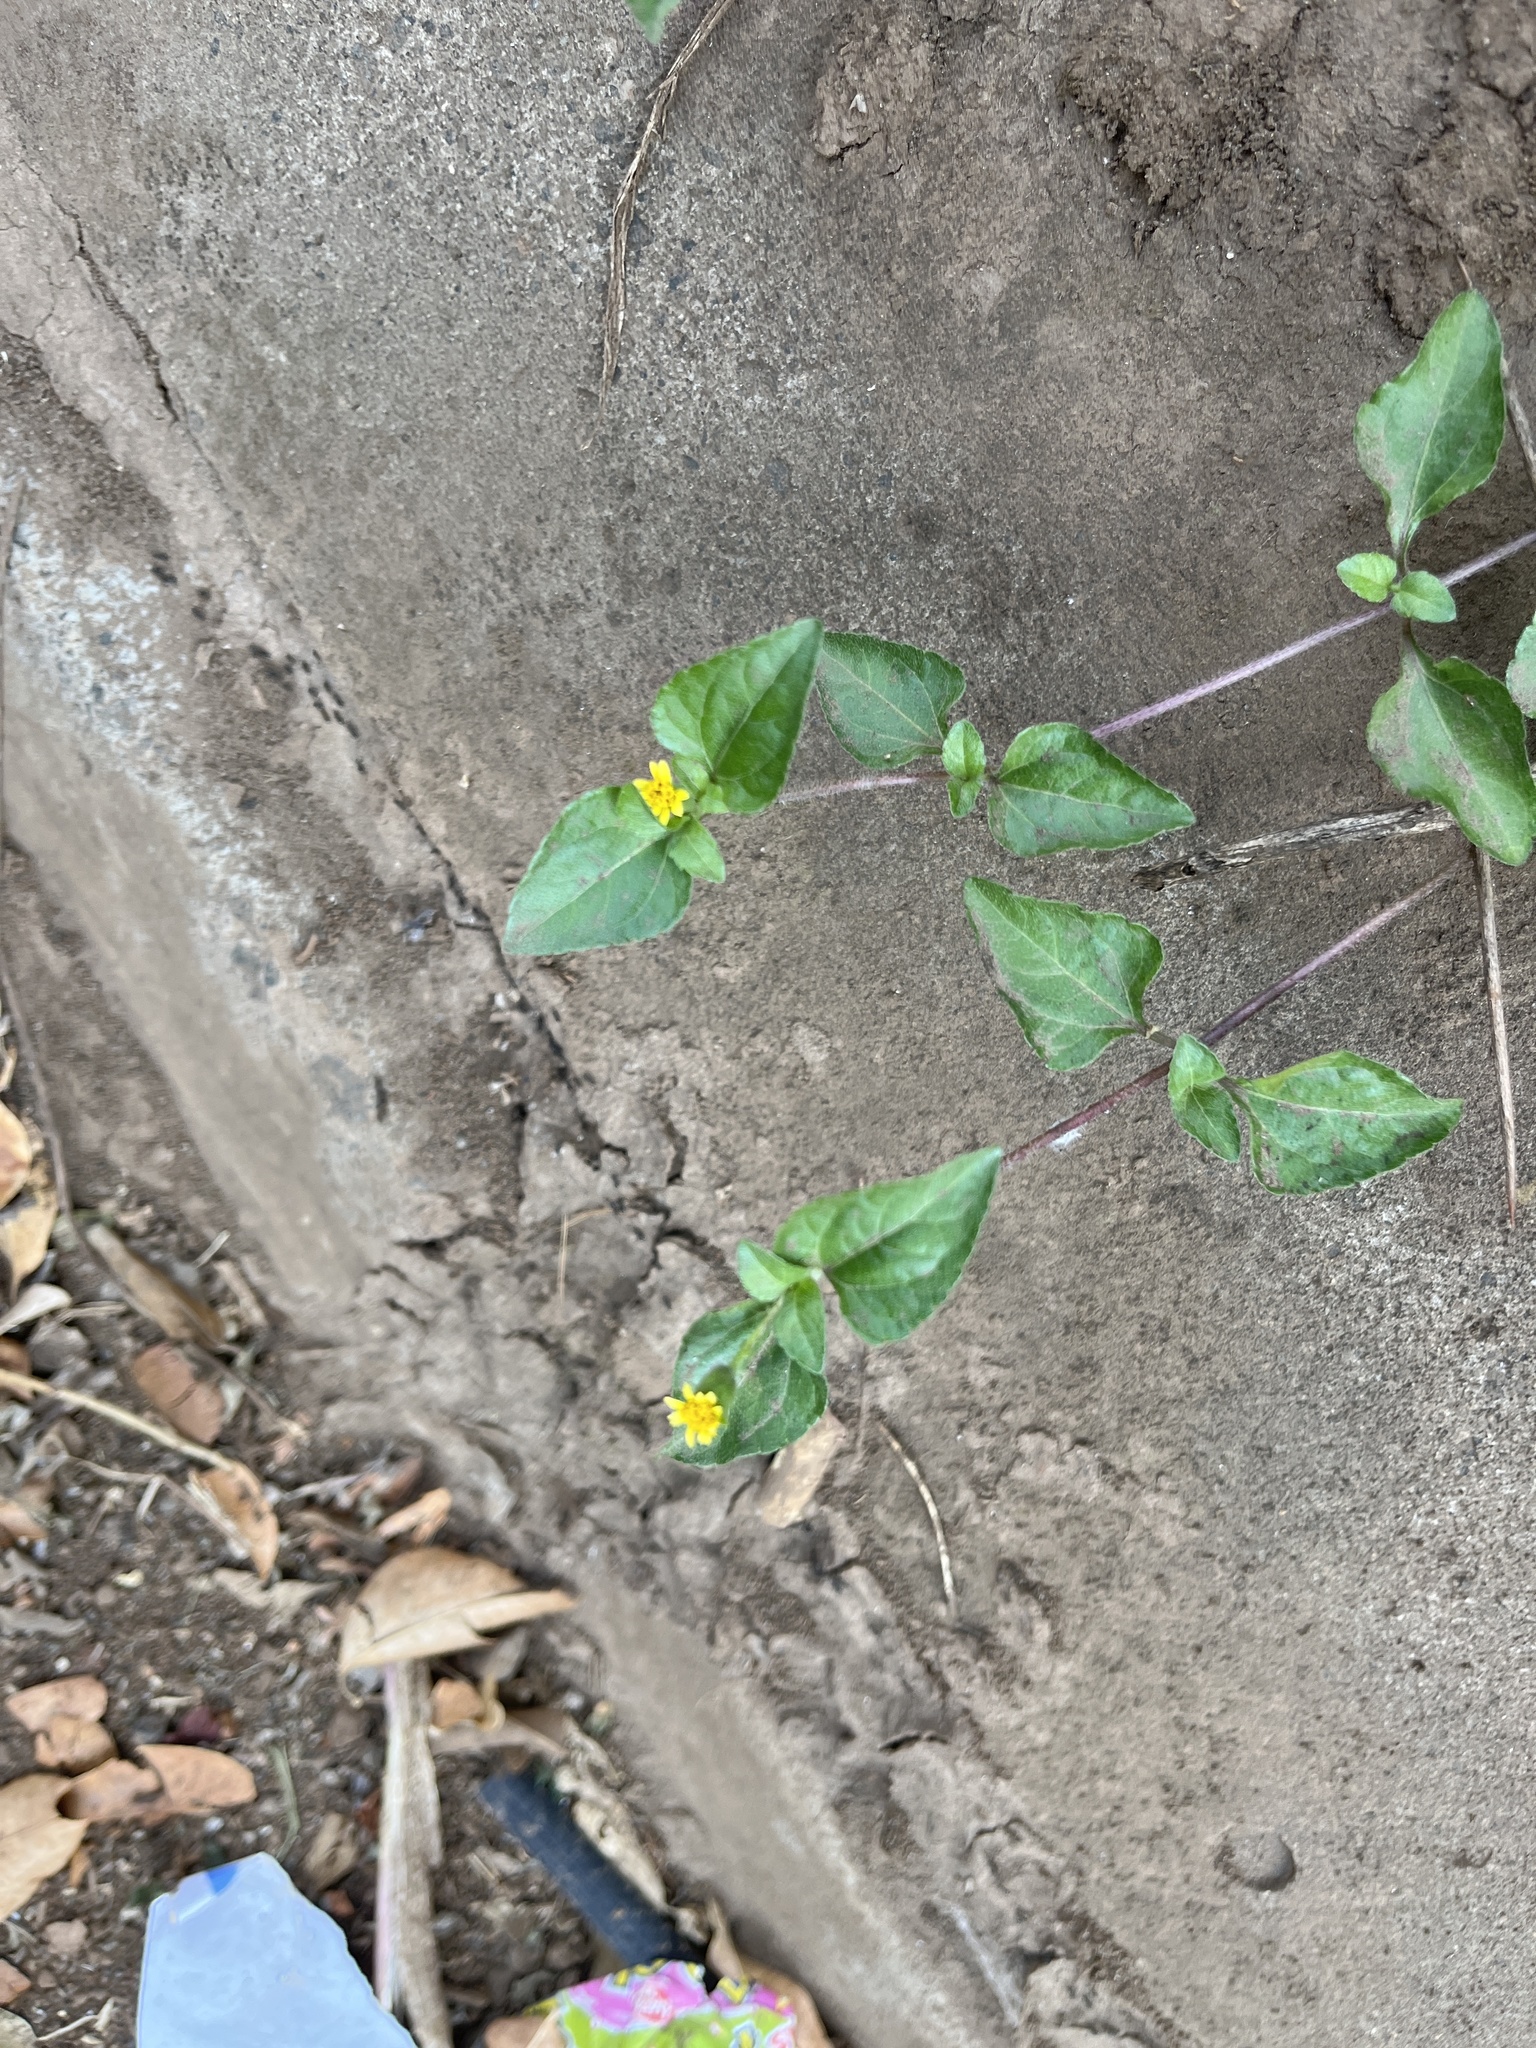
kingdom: Plantae
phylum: Tracheophyta
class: Magnoliopsida
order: Asterales
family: Asteraceae
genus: Galinsoga
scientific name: Galinsoga parviflora
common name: Gallant soldier
